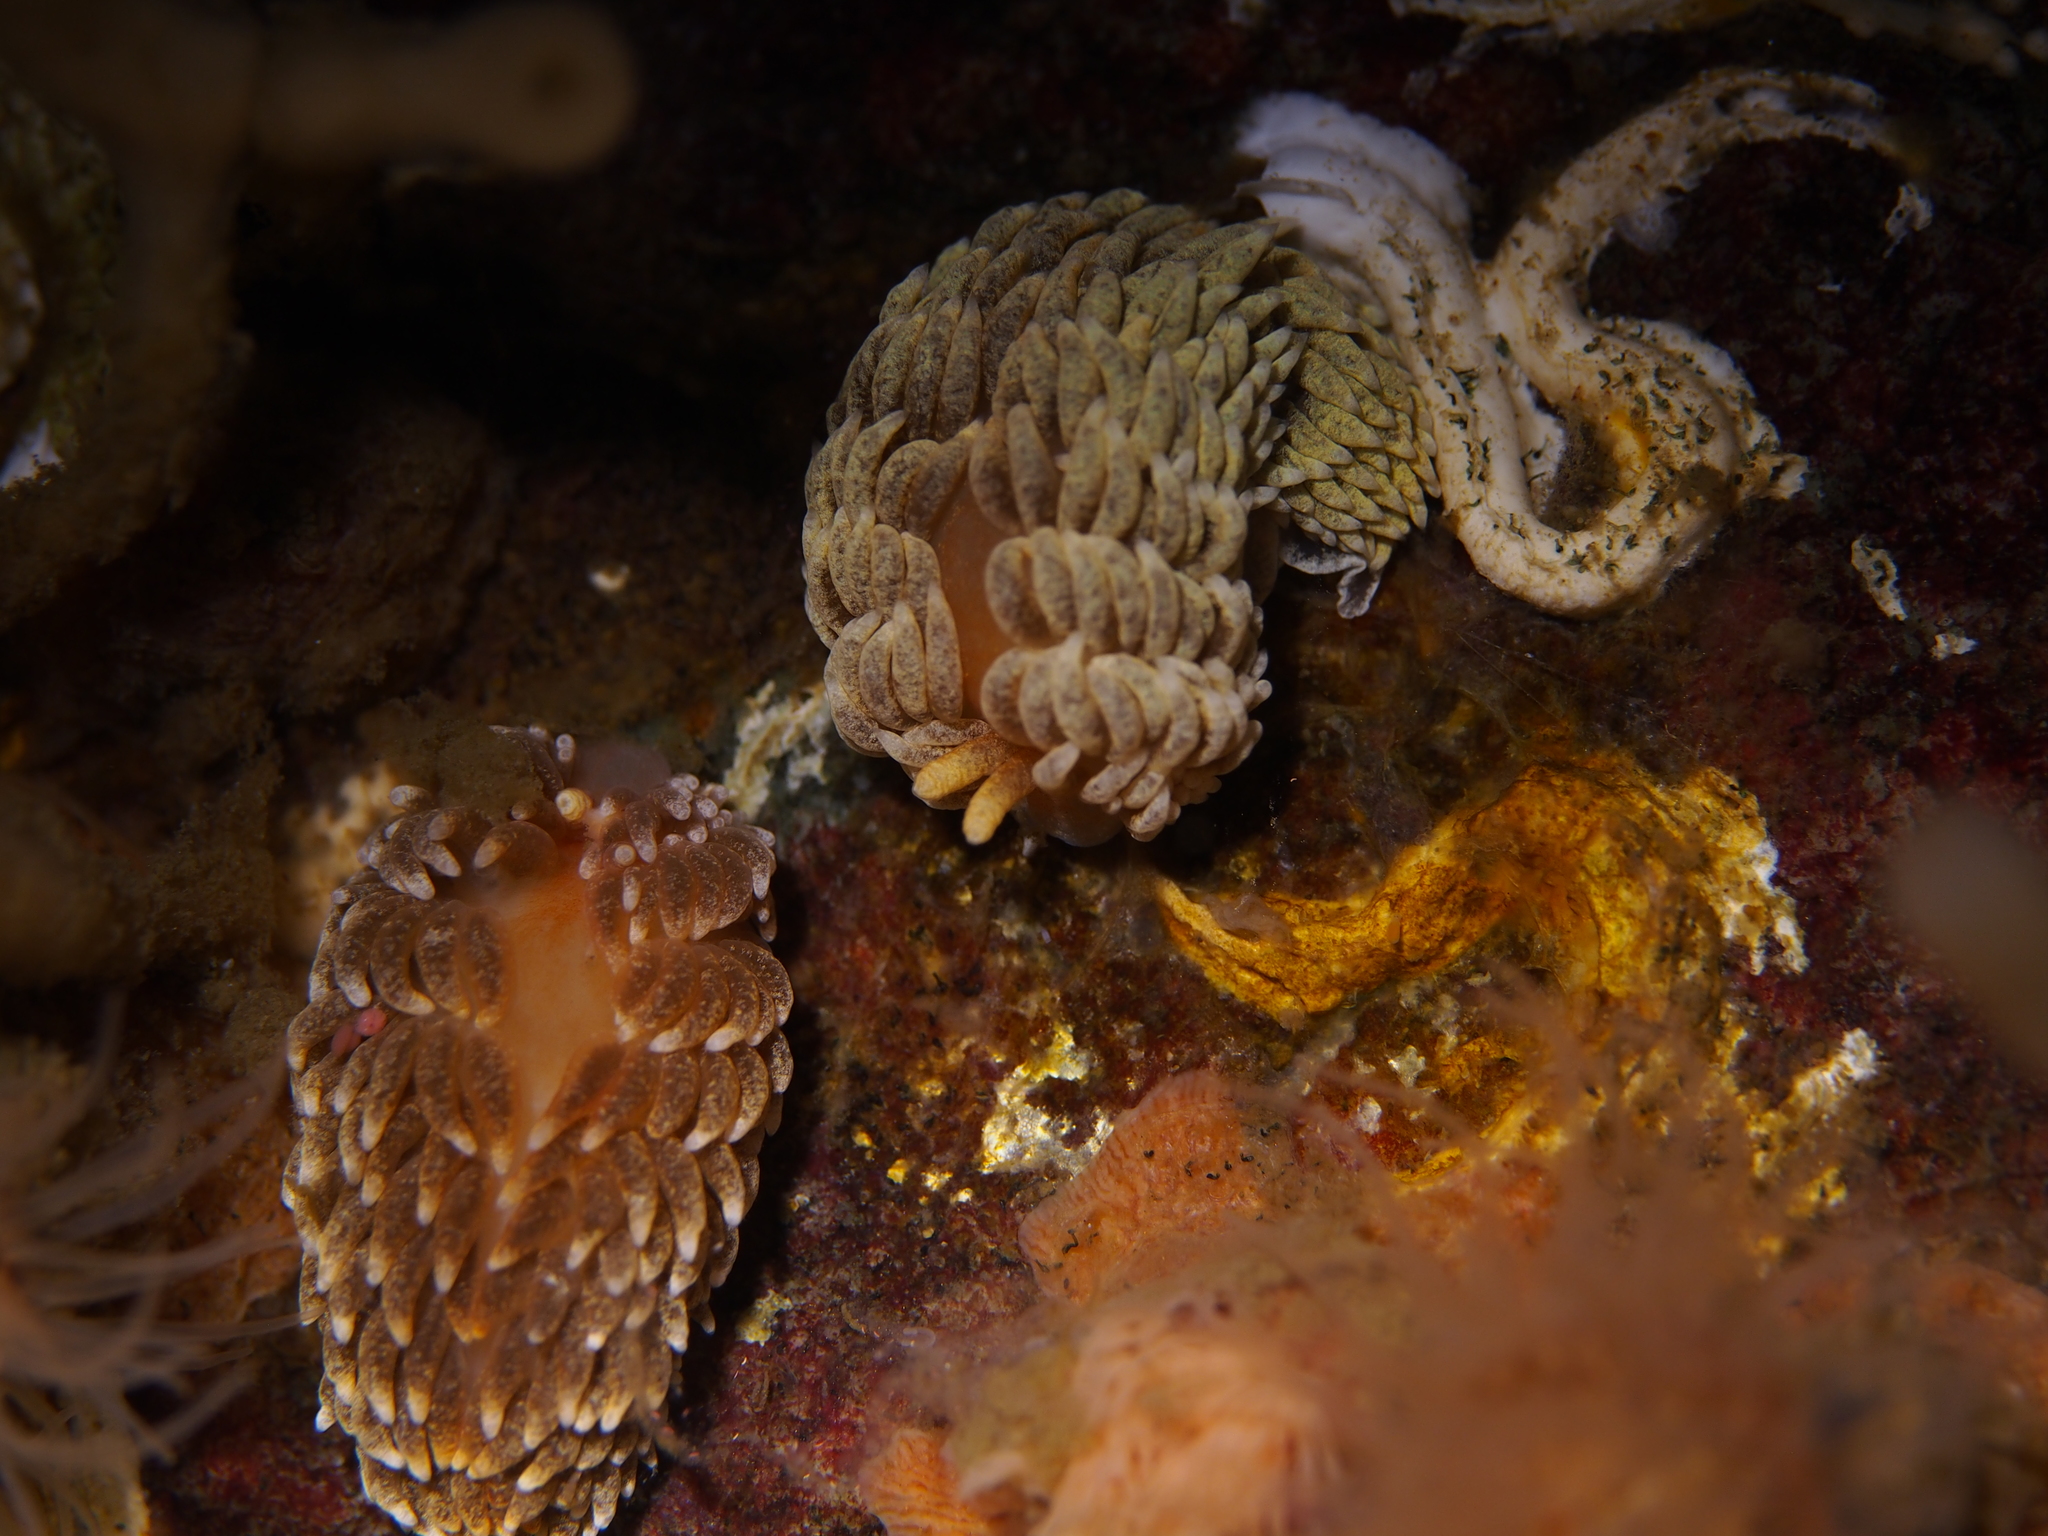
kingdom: Animalia
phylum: Mollusca
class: Gastropoda
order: Nudibranchia
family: Aeolidiidae
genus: Aeolidiella
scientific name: Aeolidiella glauca
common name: Orange-brown aeolid
